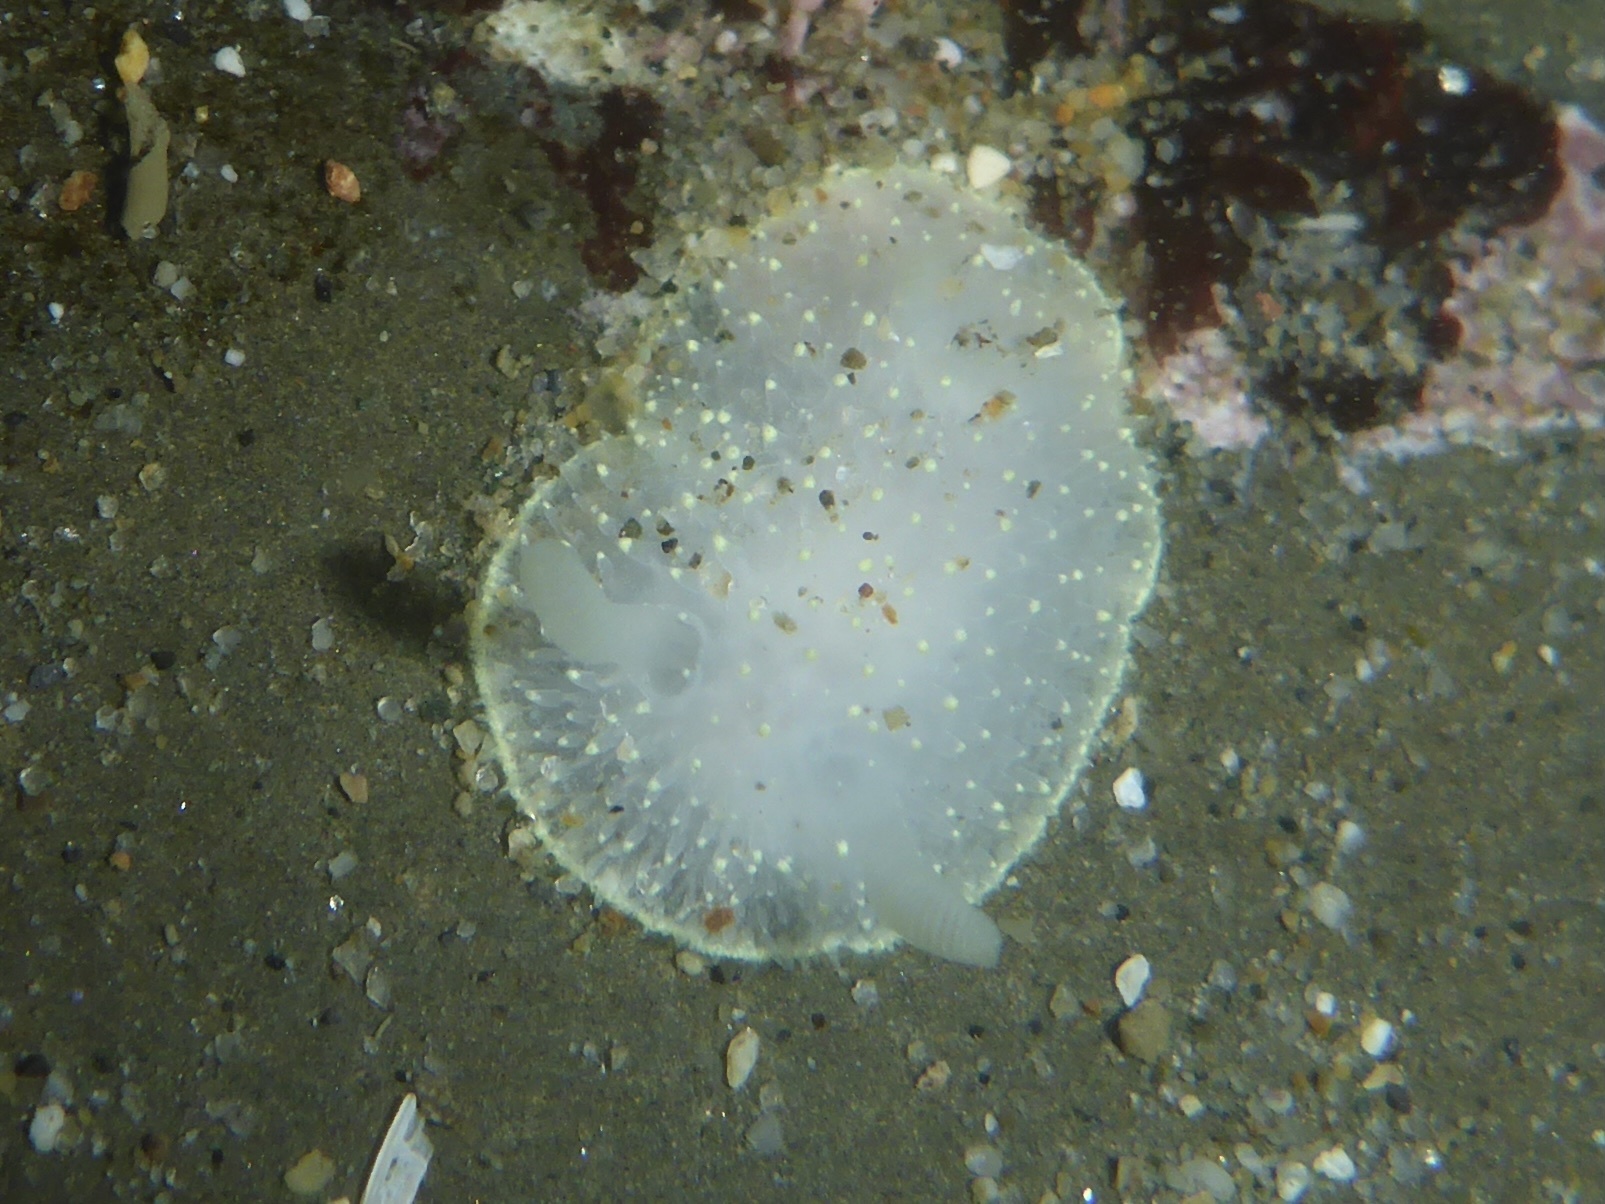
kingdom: Animalia
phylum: Mollusca
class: Gastropoda
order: Nudibranchia
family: Onchidorididae
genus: Acanthodoris
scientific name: Acanthodoris hudsoni
